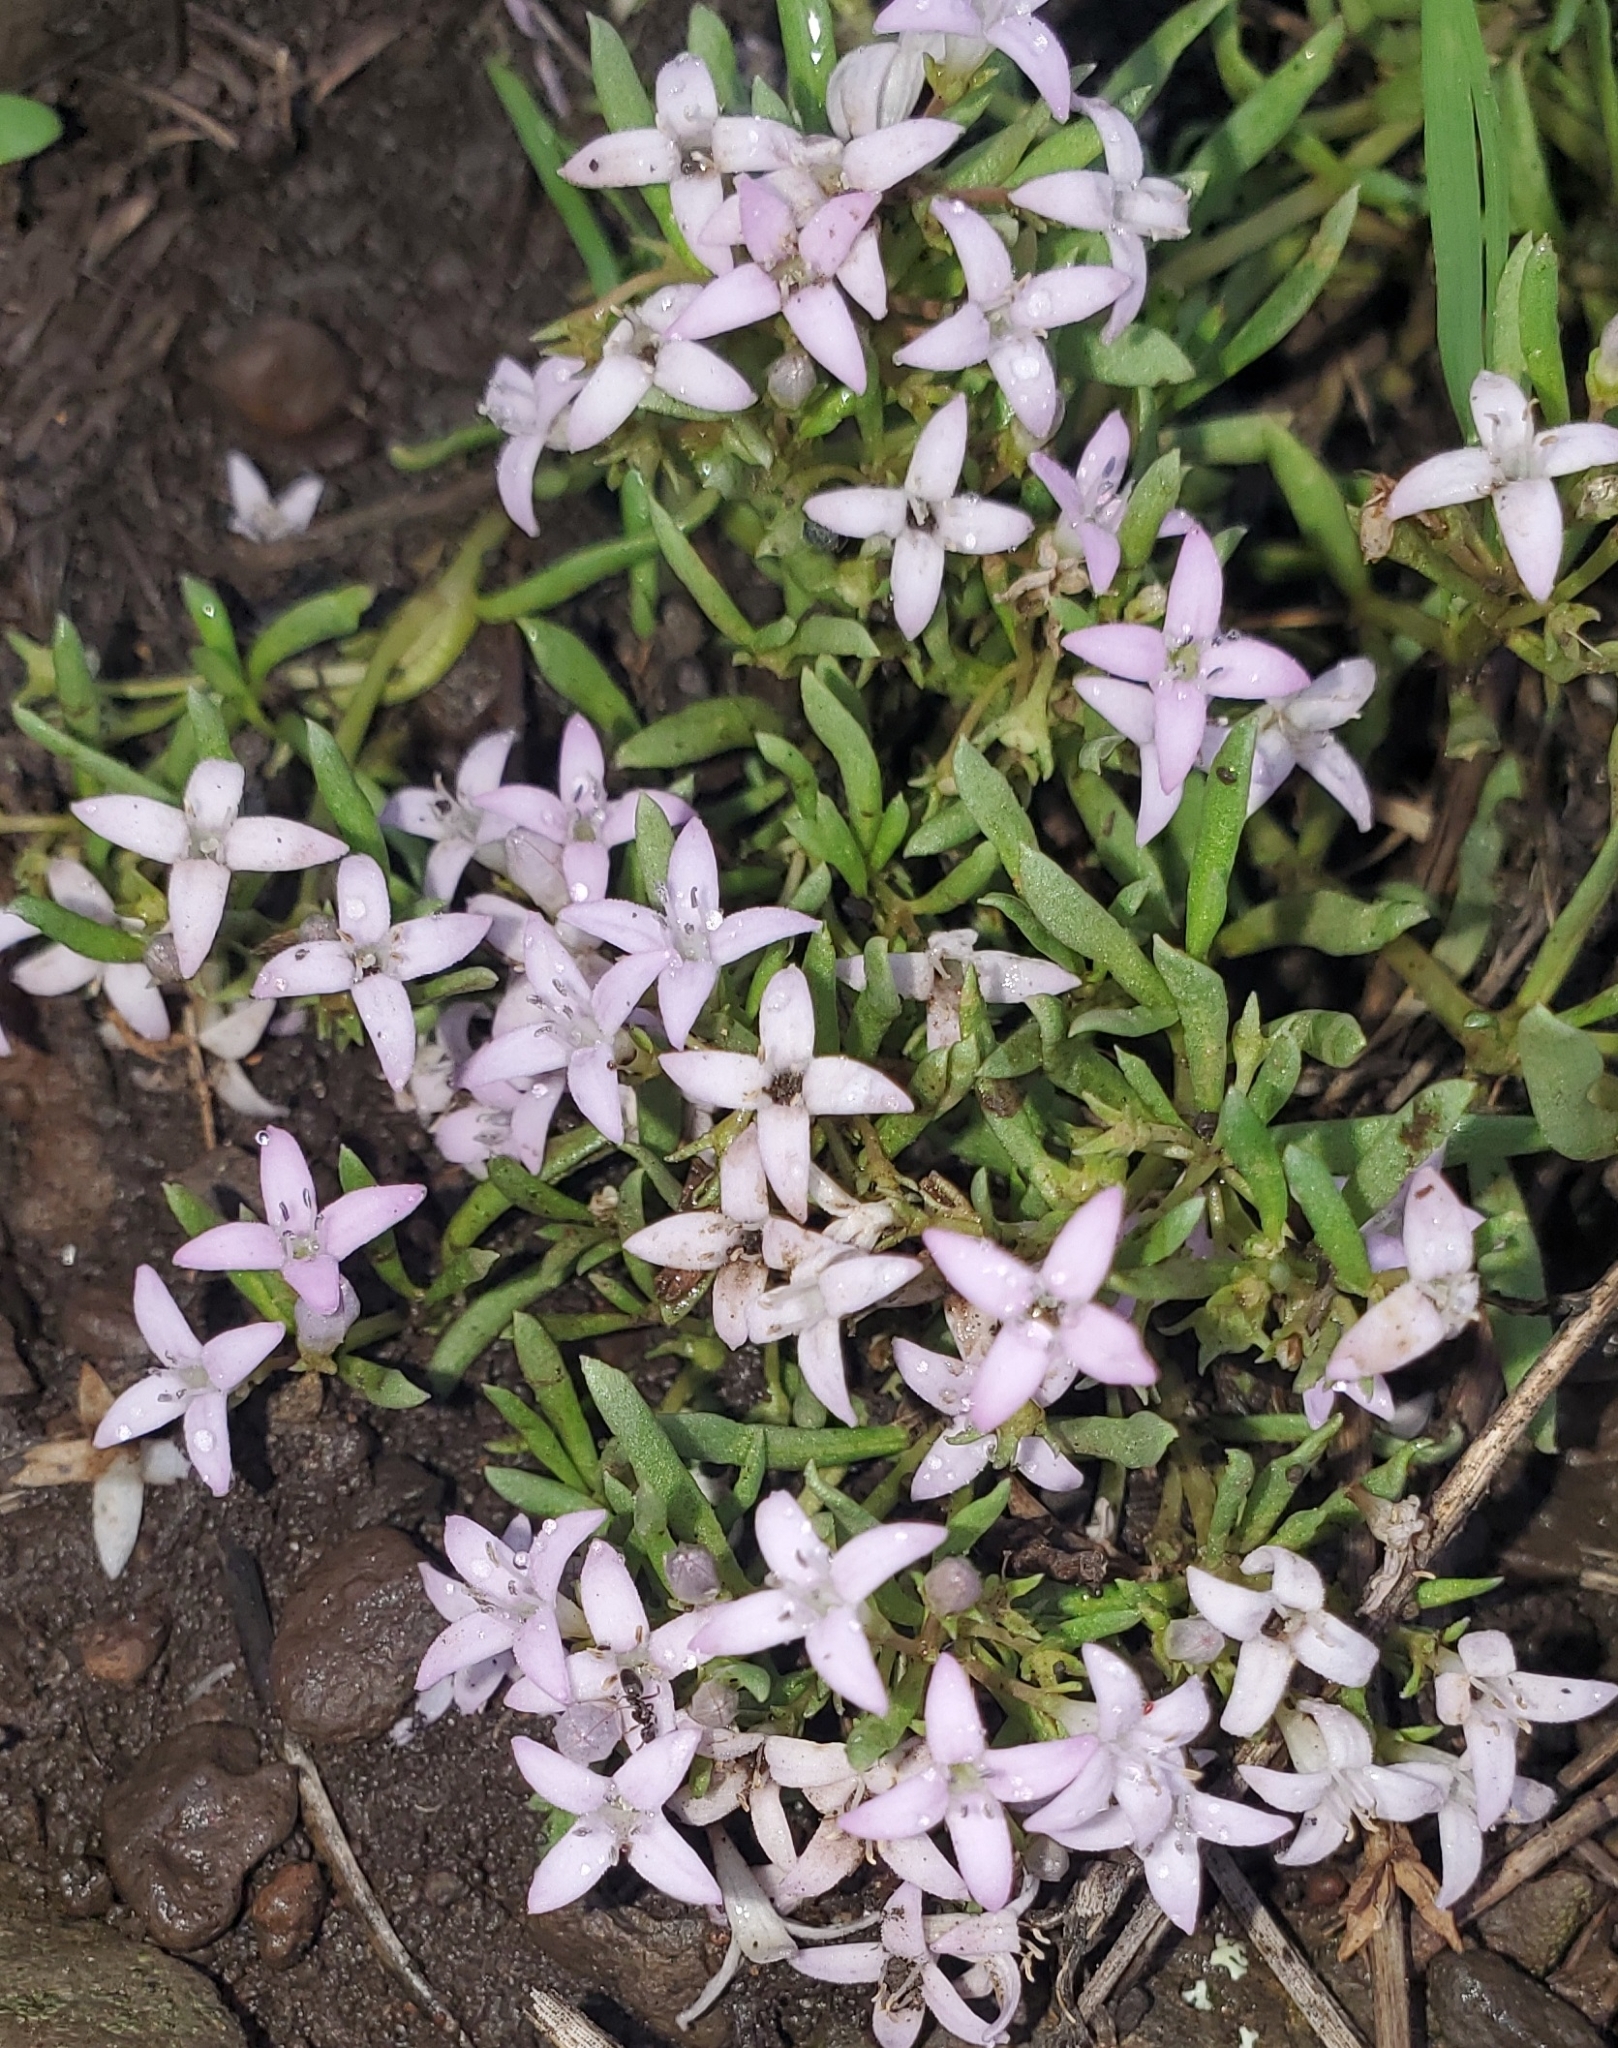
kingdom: Plantae
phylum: Tracheophyta
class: Magnoliopsida
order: Gentianales
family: Rubiaceae
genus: Houstonia
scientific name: Houstonia wrightii
